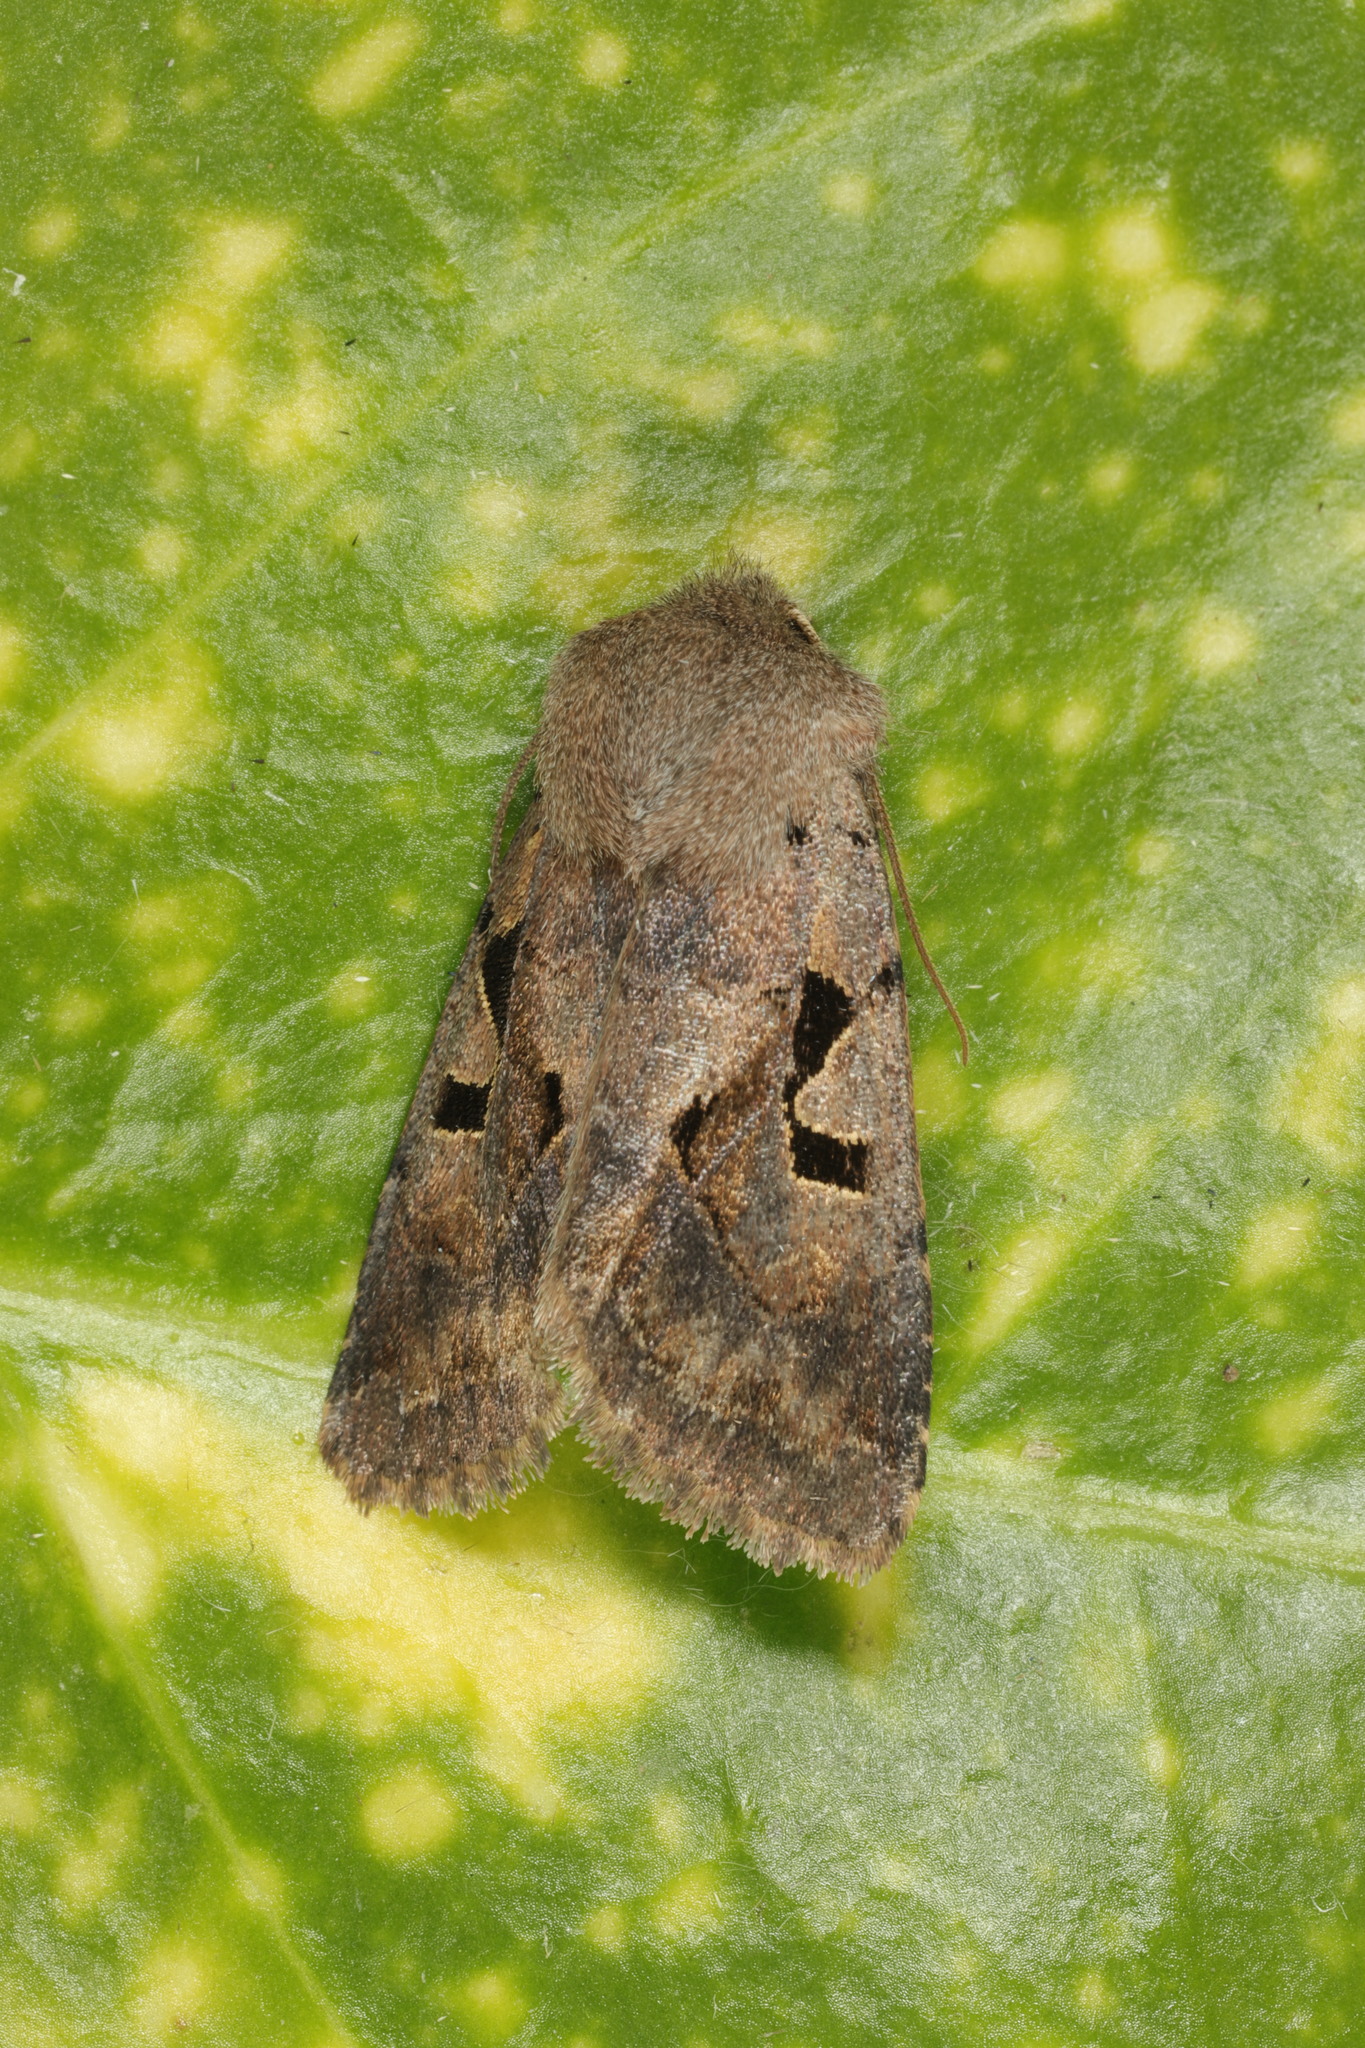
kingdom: Animalia
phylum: Arthropoda
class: Insecta
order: Lepidoptera
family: Noctuidae
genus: Orthosia
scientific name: Orthosia gothica
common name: Hebrew character
